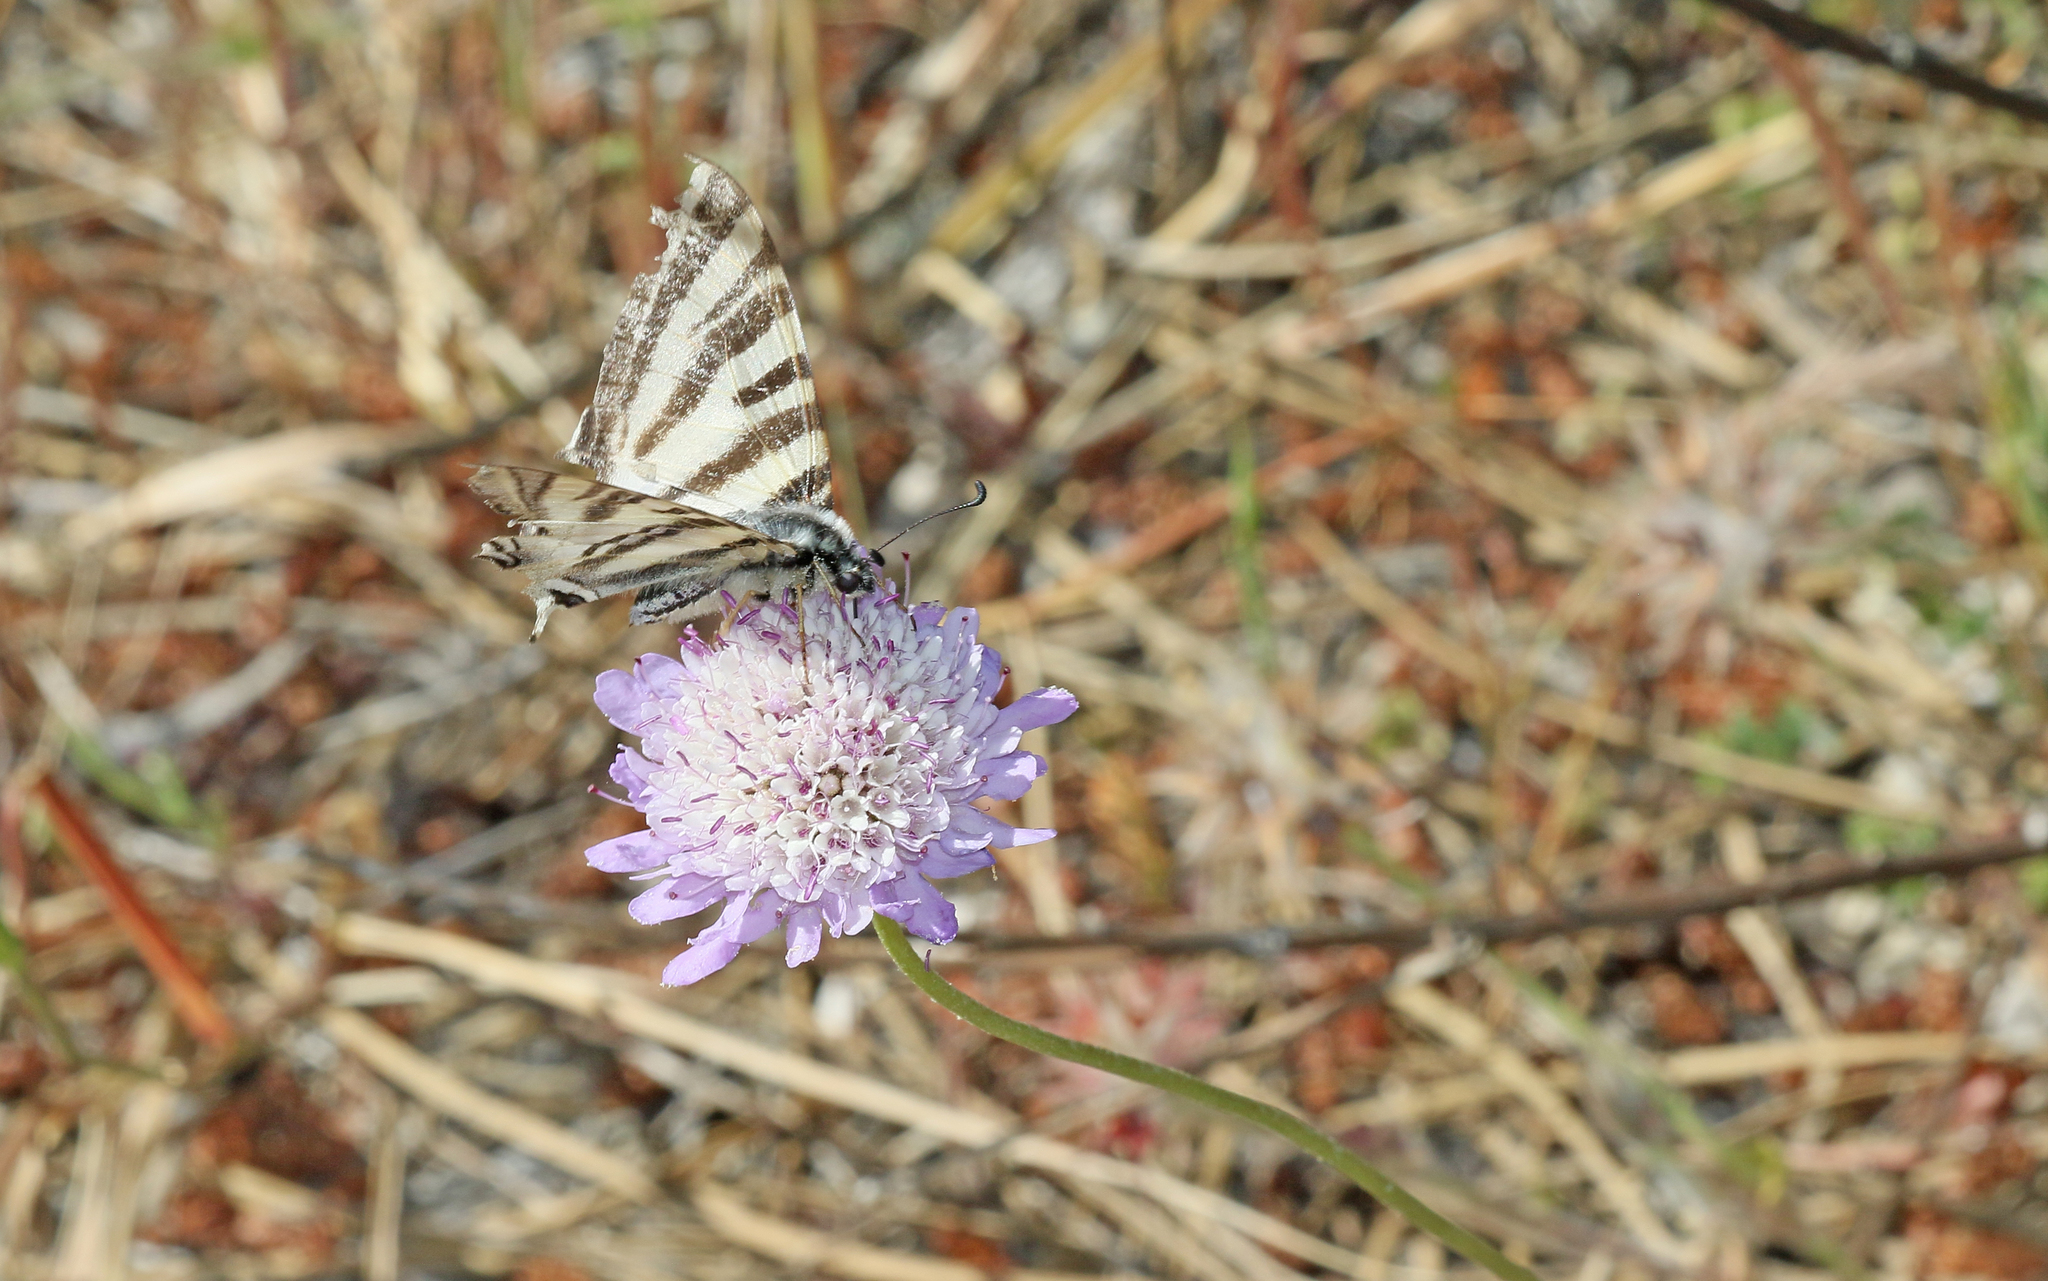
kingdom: Animalia
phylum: Arthropoda
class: Insecta
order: Lepidoptera
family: Papilionidae
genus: Iphiclides
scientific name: Iphiclides feisthamelii
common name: Iberian scarce swallowtail
